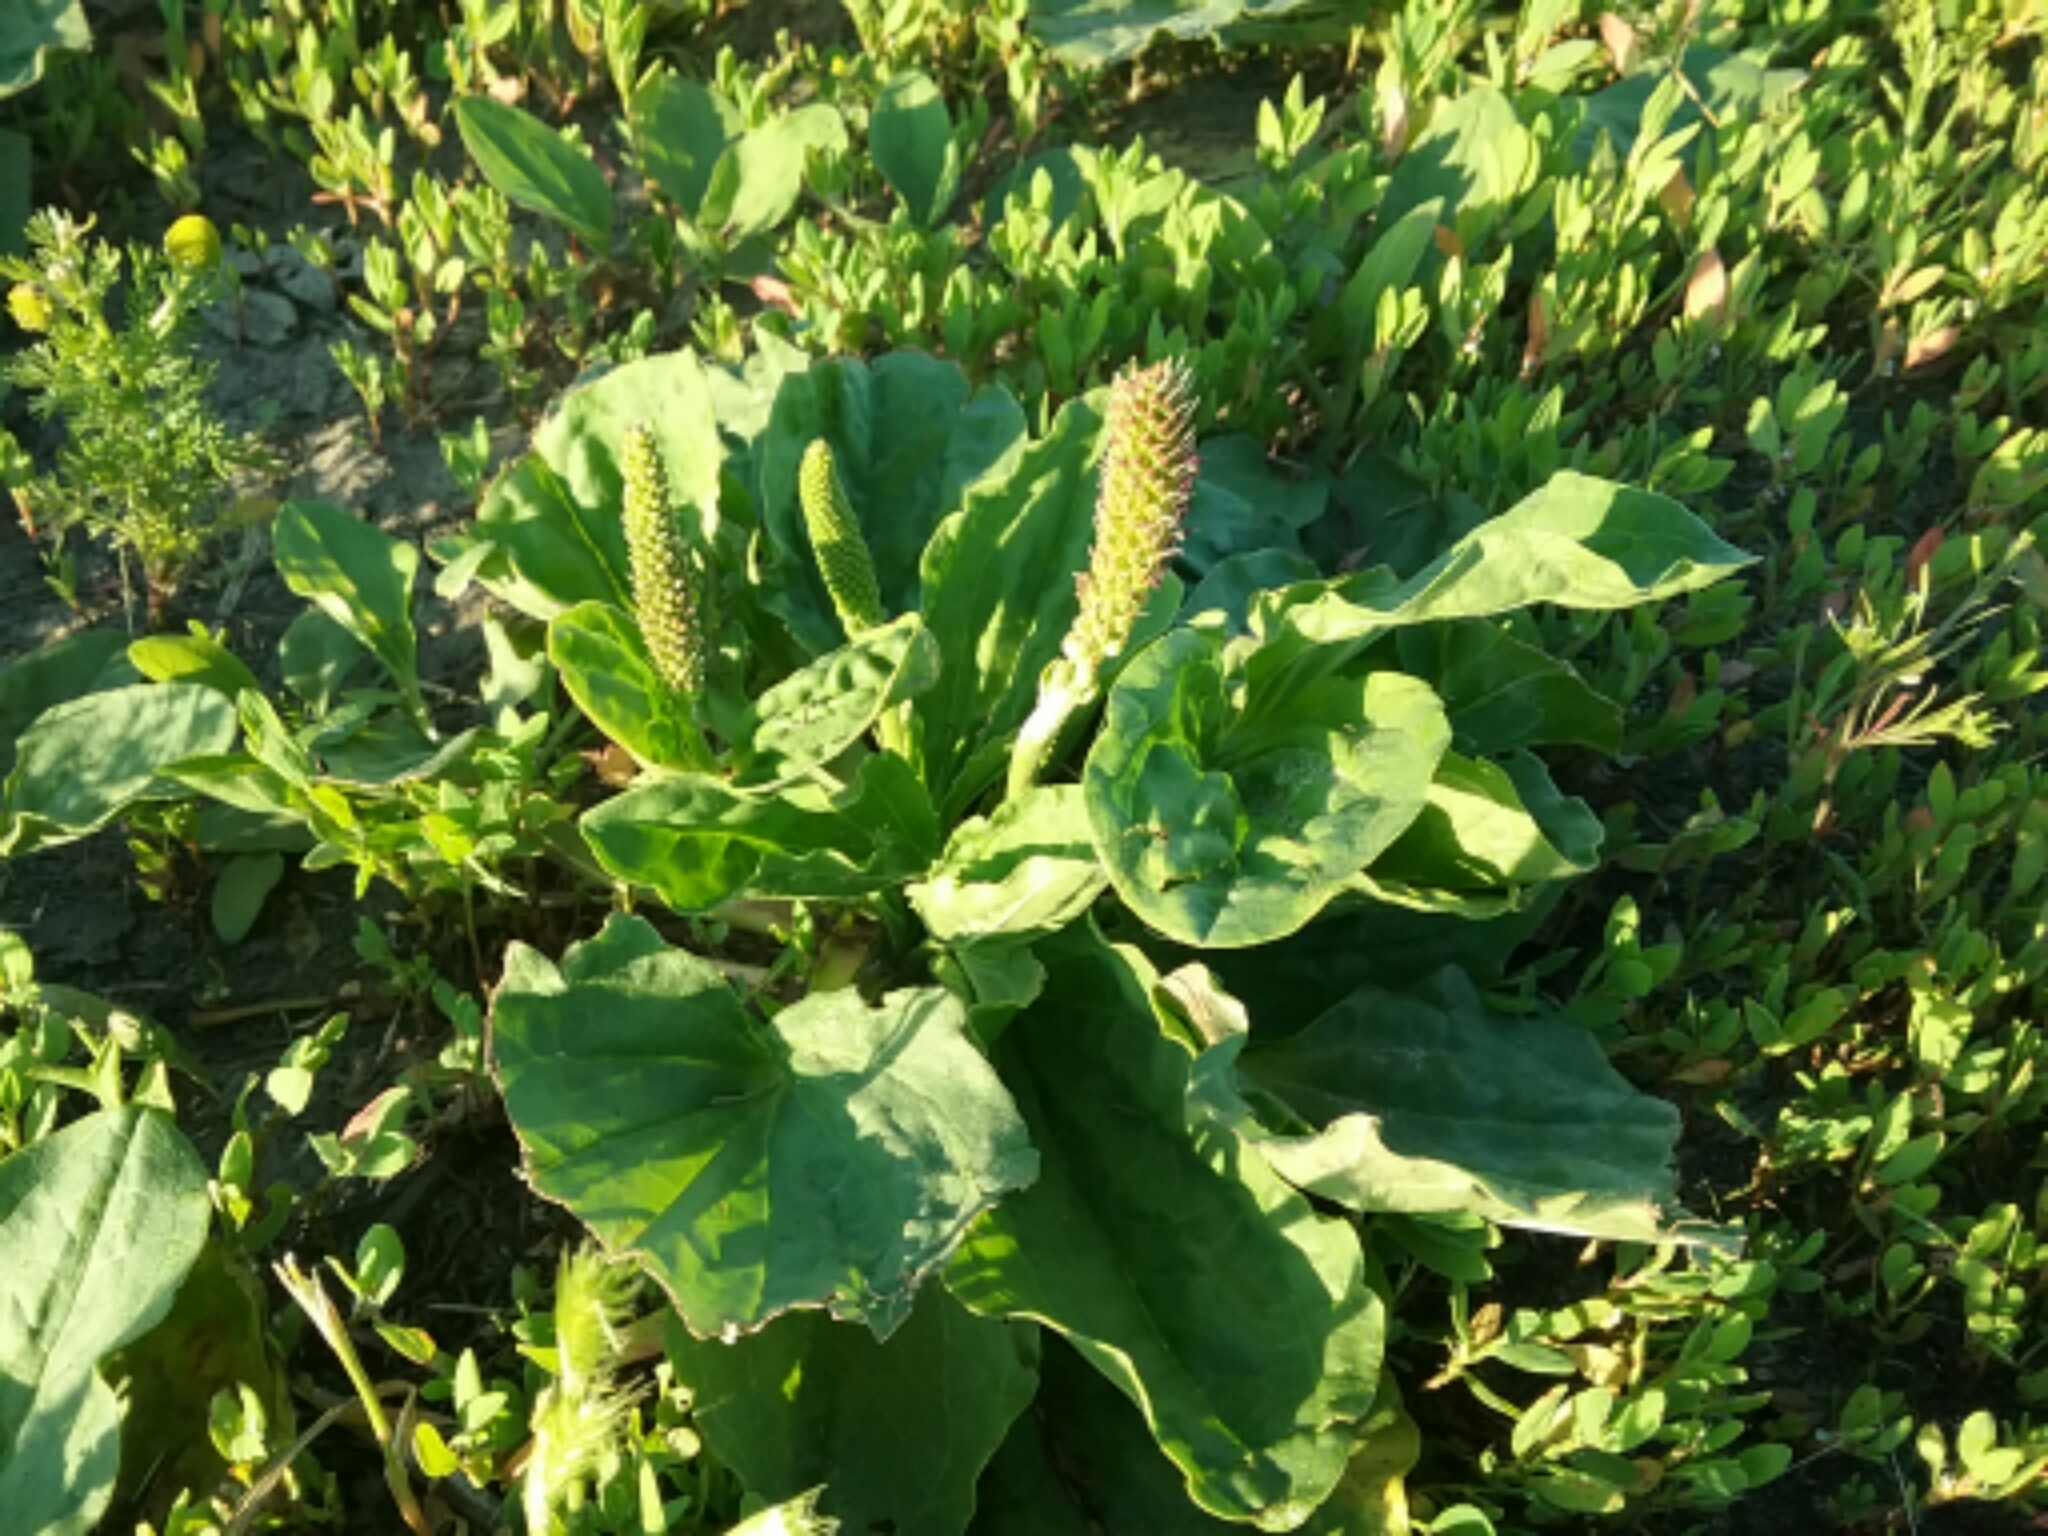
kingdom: Plantae
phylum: Tracheophyta
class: Magnoliopsida
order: Lamiales
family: Plantaginaceae
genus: Plantago
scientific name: Plantago major
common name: Common plantain
